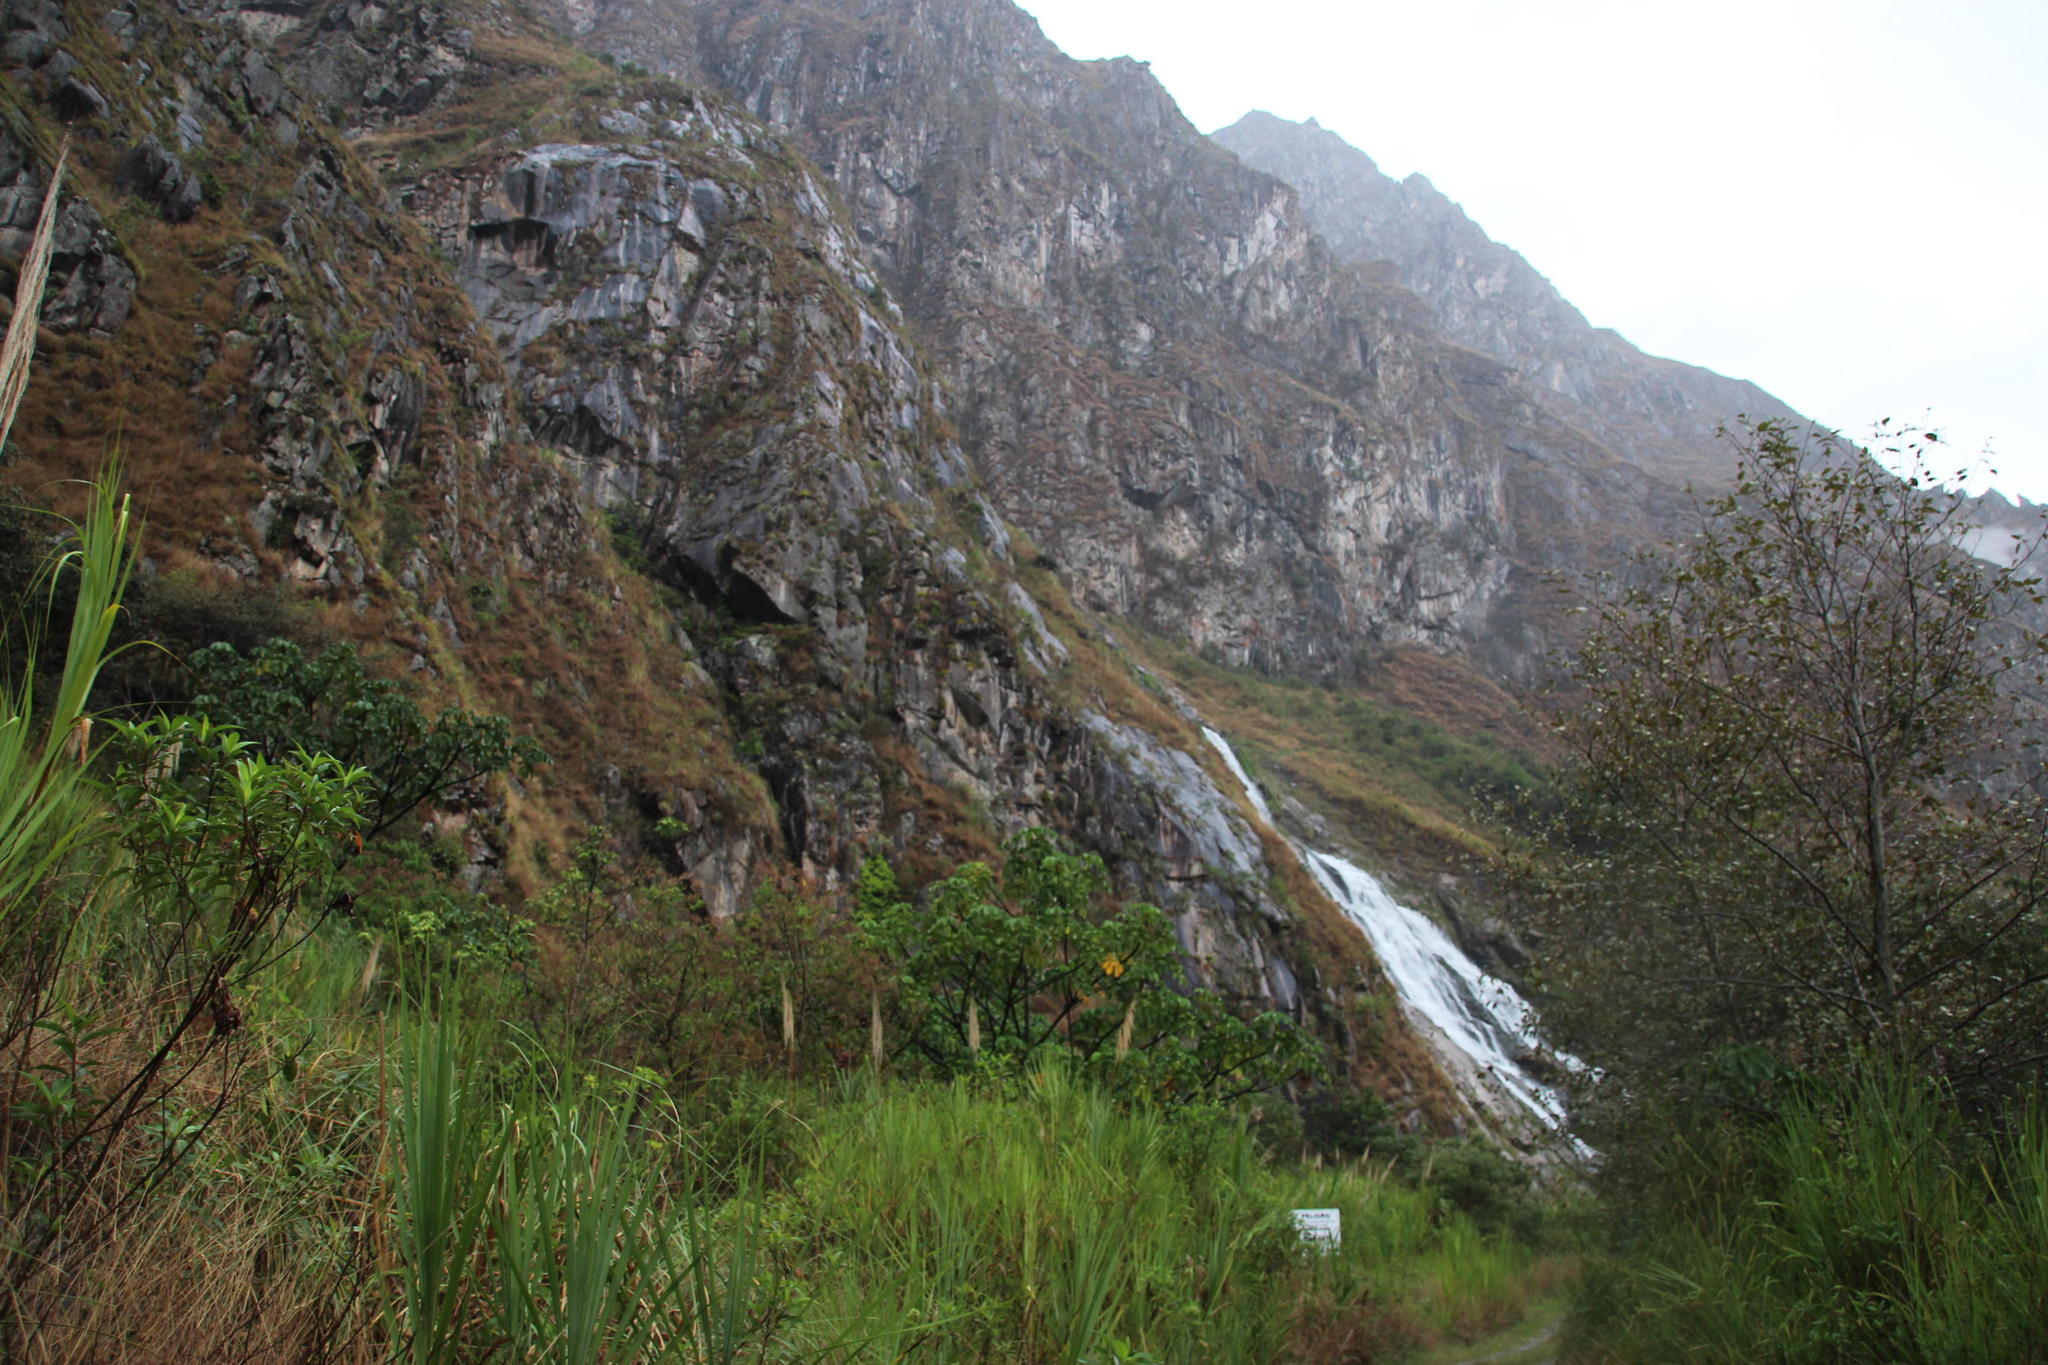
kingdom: Plantae
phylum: Tracheophyta
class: Liliopsida
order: Poales
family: Poaceae
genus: Gynerium
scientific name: Gynerium sagittatum
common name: Wild cane
